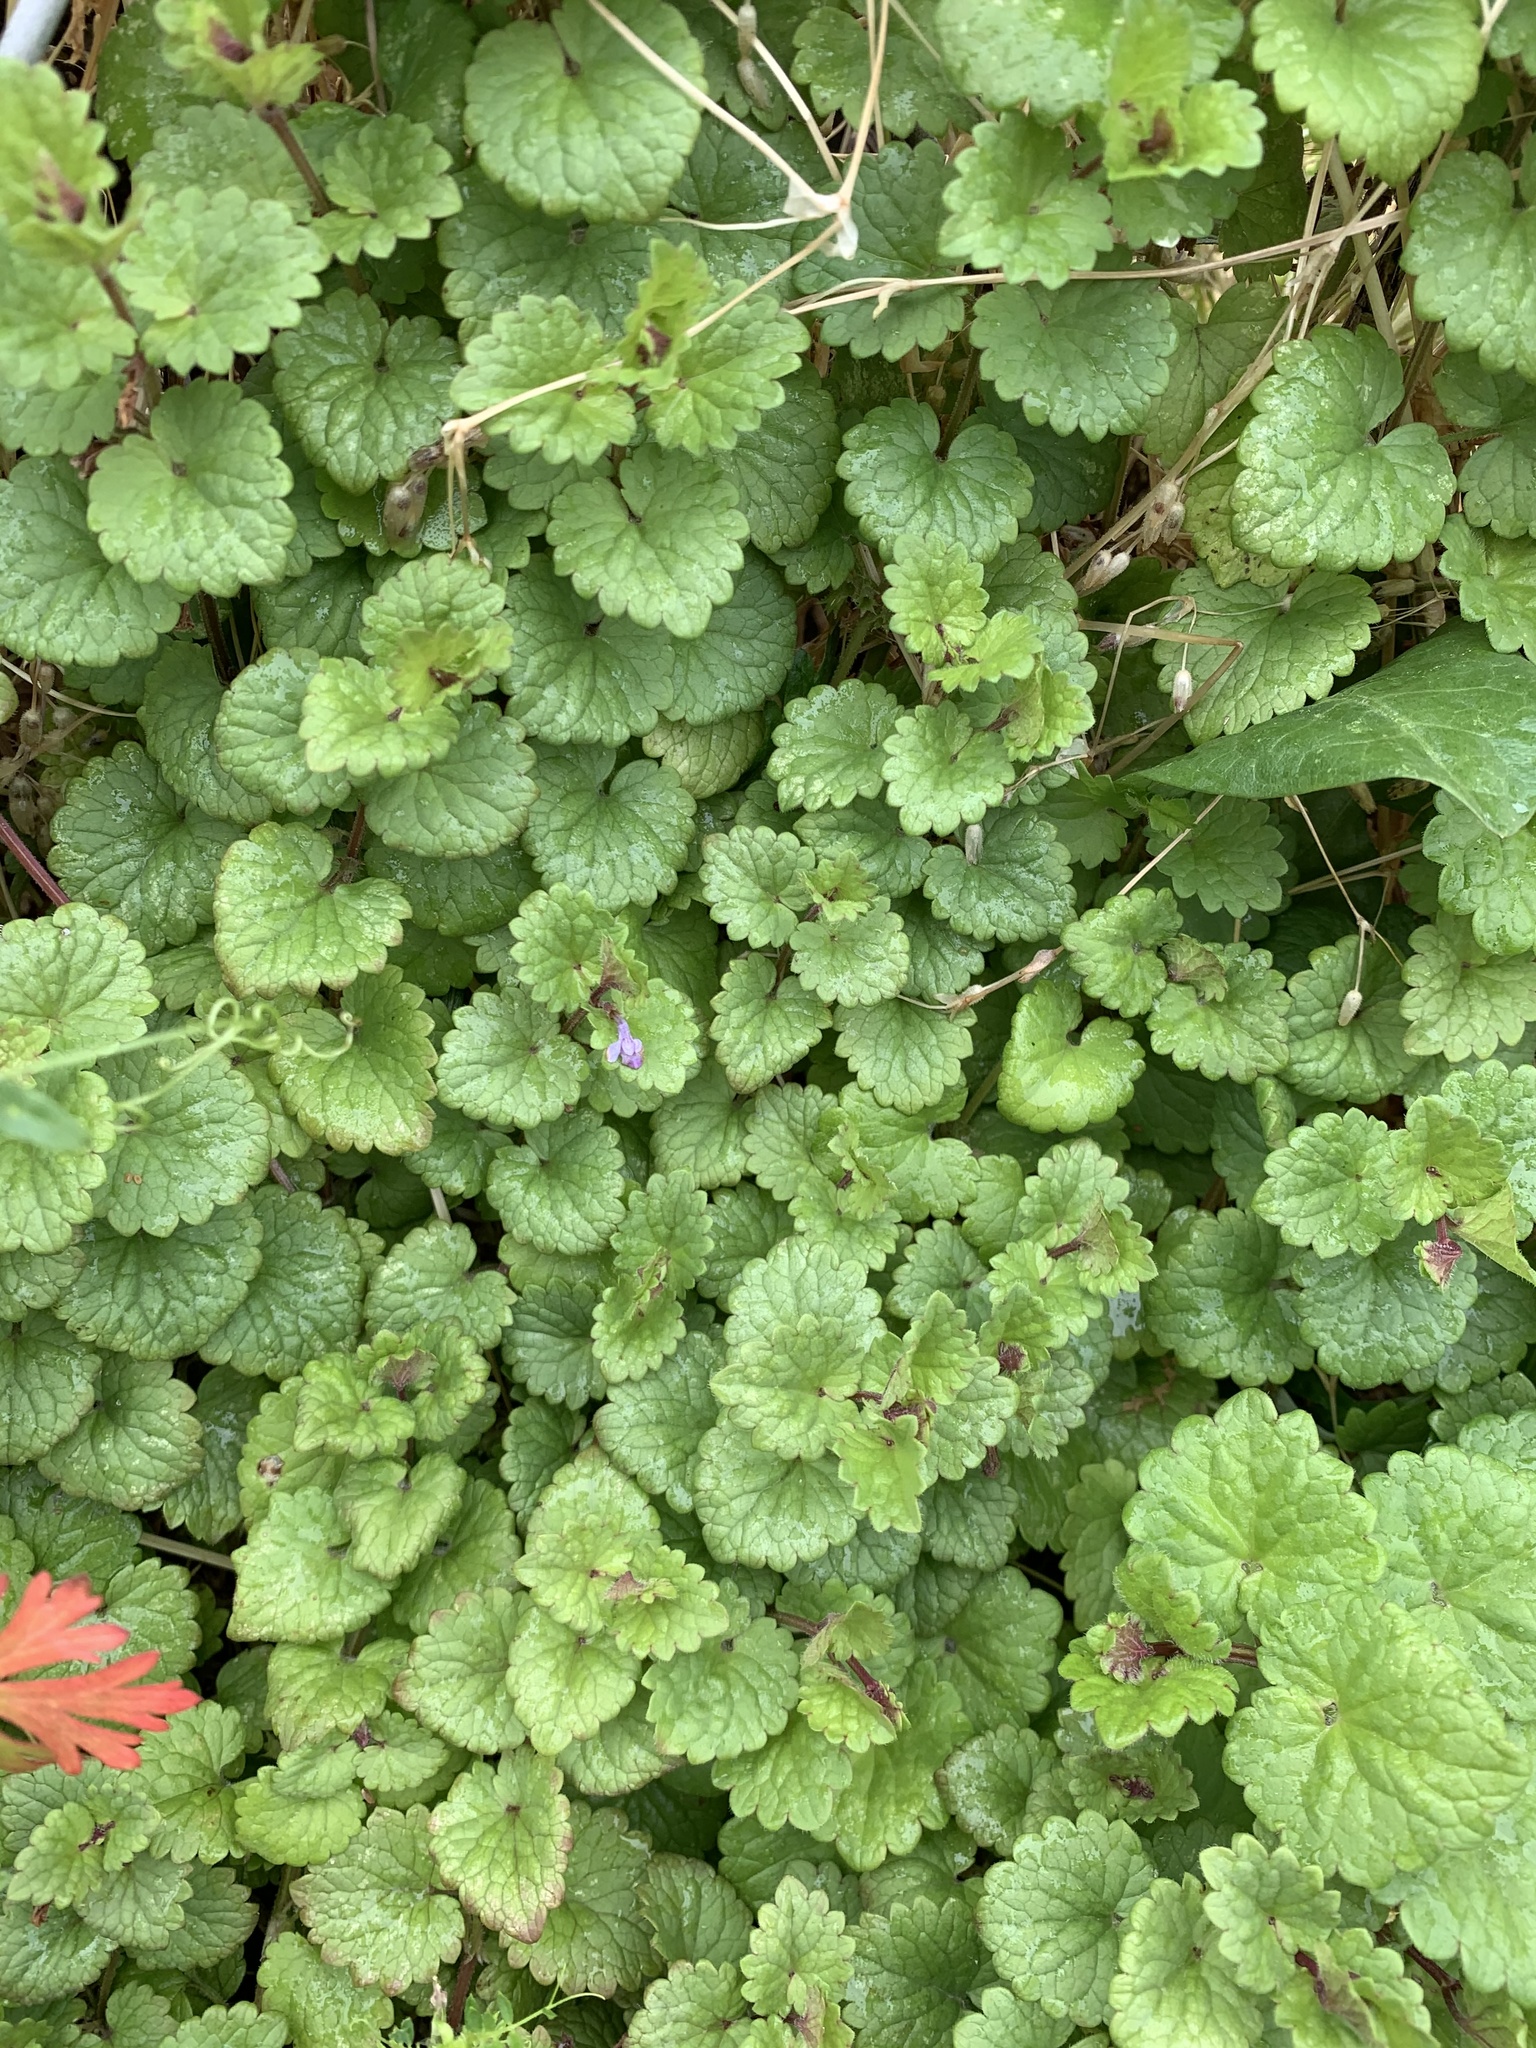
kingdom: Plantae
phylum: Tracheophyta
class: Magnoliopsida
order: Lamiales
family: Lamiaceae
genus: Glechoma
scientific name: Glechoma hederacea
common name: Ground ivy
